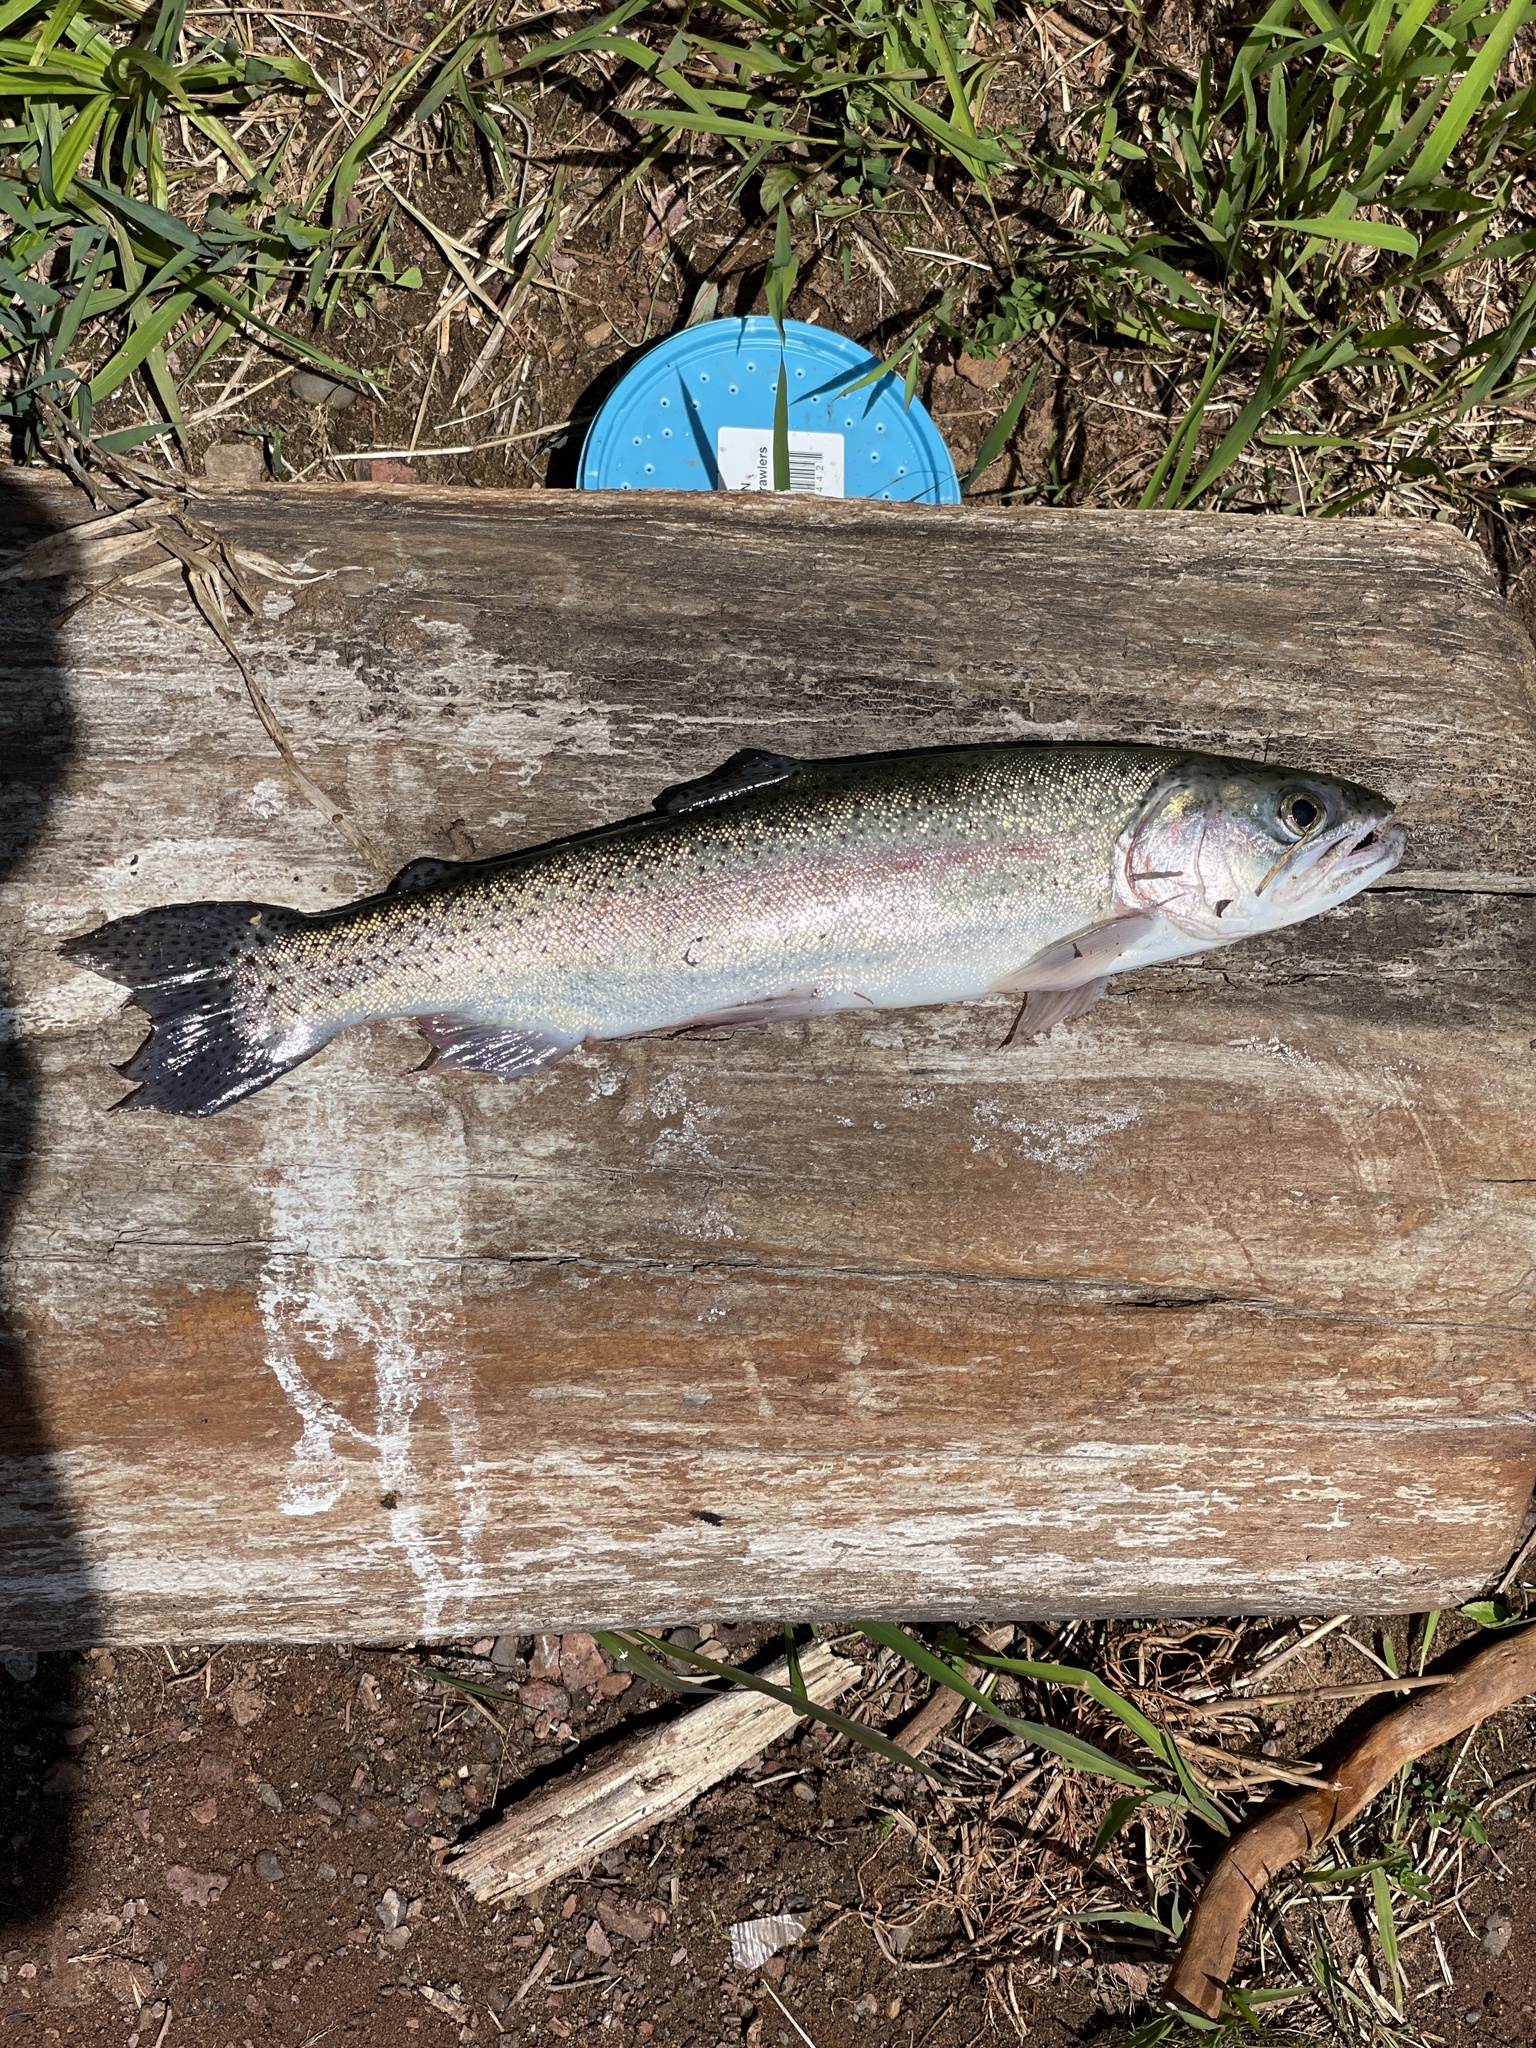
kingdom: Animalia
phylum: Chordata
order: Salmoniformes
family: Salmonidae
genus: Oncorhynchus
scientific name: Oncorhynchus mykiss
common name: Rainbow trout
